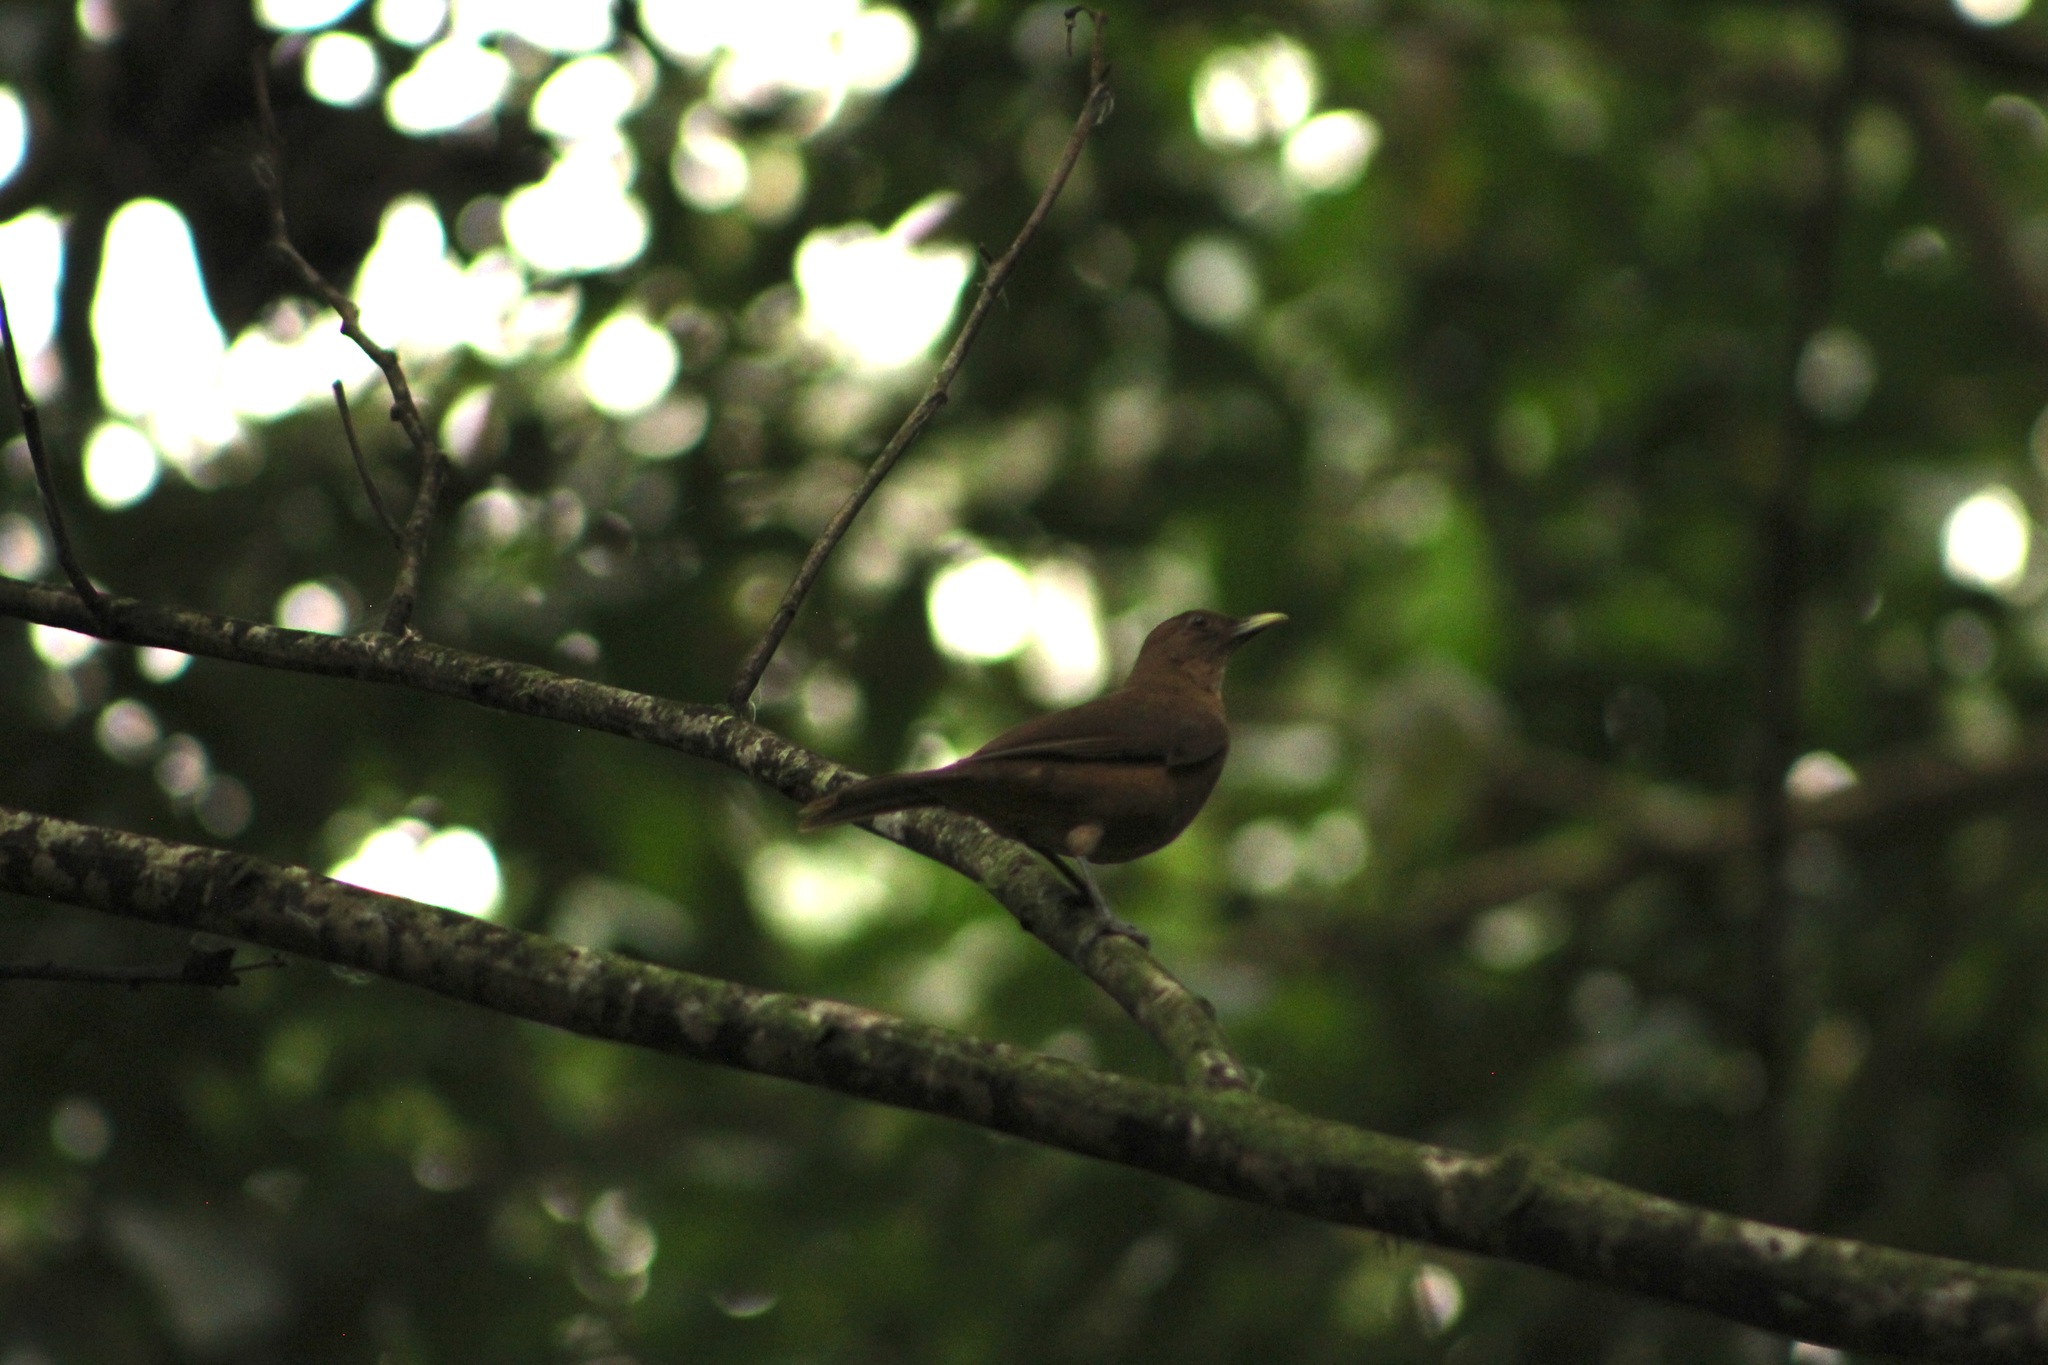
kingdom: Animalia
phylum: Chordata
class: Aves
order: Passeriformes
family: Turdidae
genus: Turdus
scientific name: Turdus grayi
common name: Clay-colored thrush
